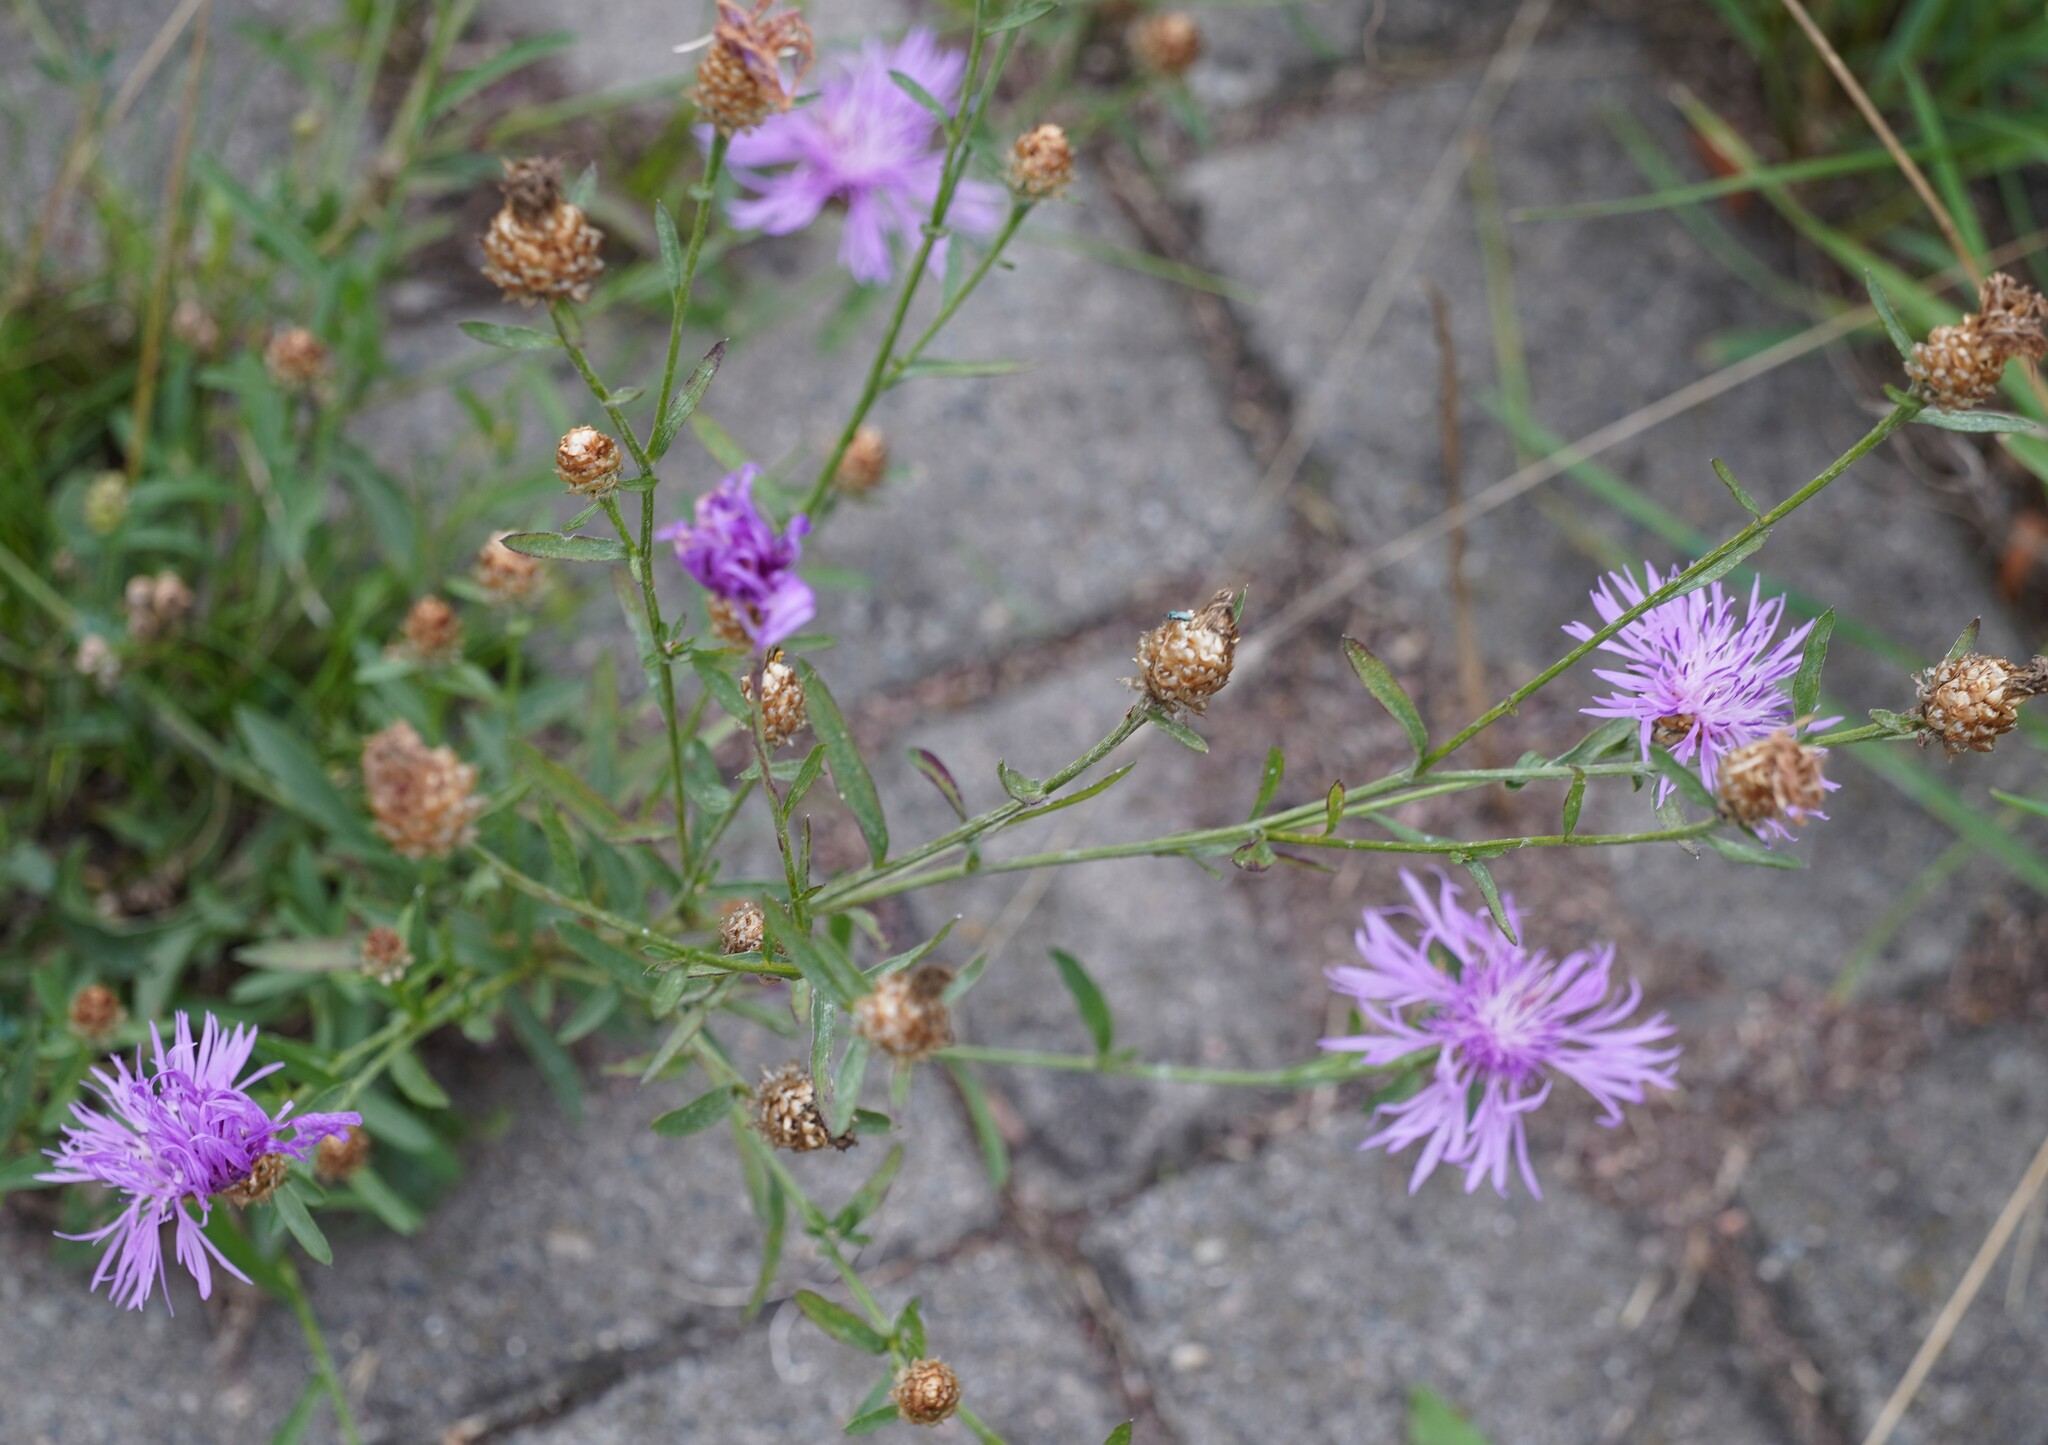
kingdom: Plantae
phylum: Tracheophyta
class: Magnoliopsida
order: Asterales
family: Asteraceae
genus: Centaurea
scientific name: Centaurea jacea
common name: Brown knapweed
